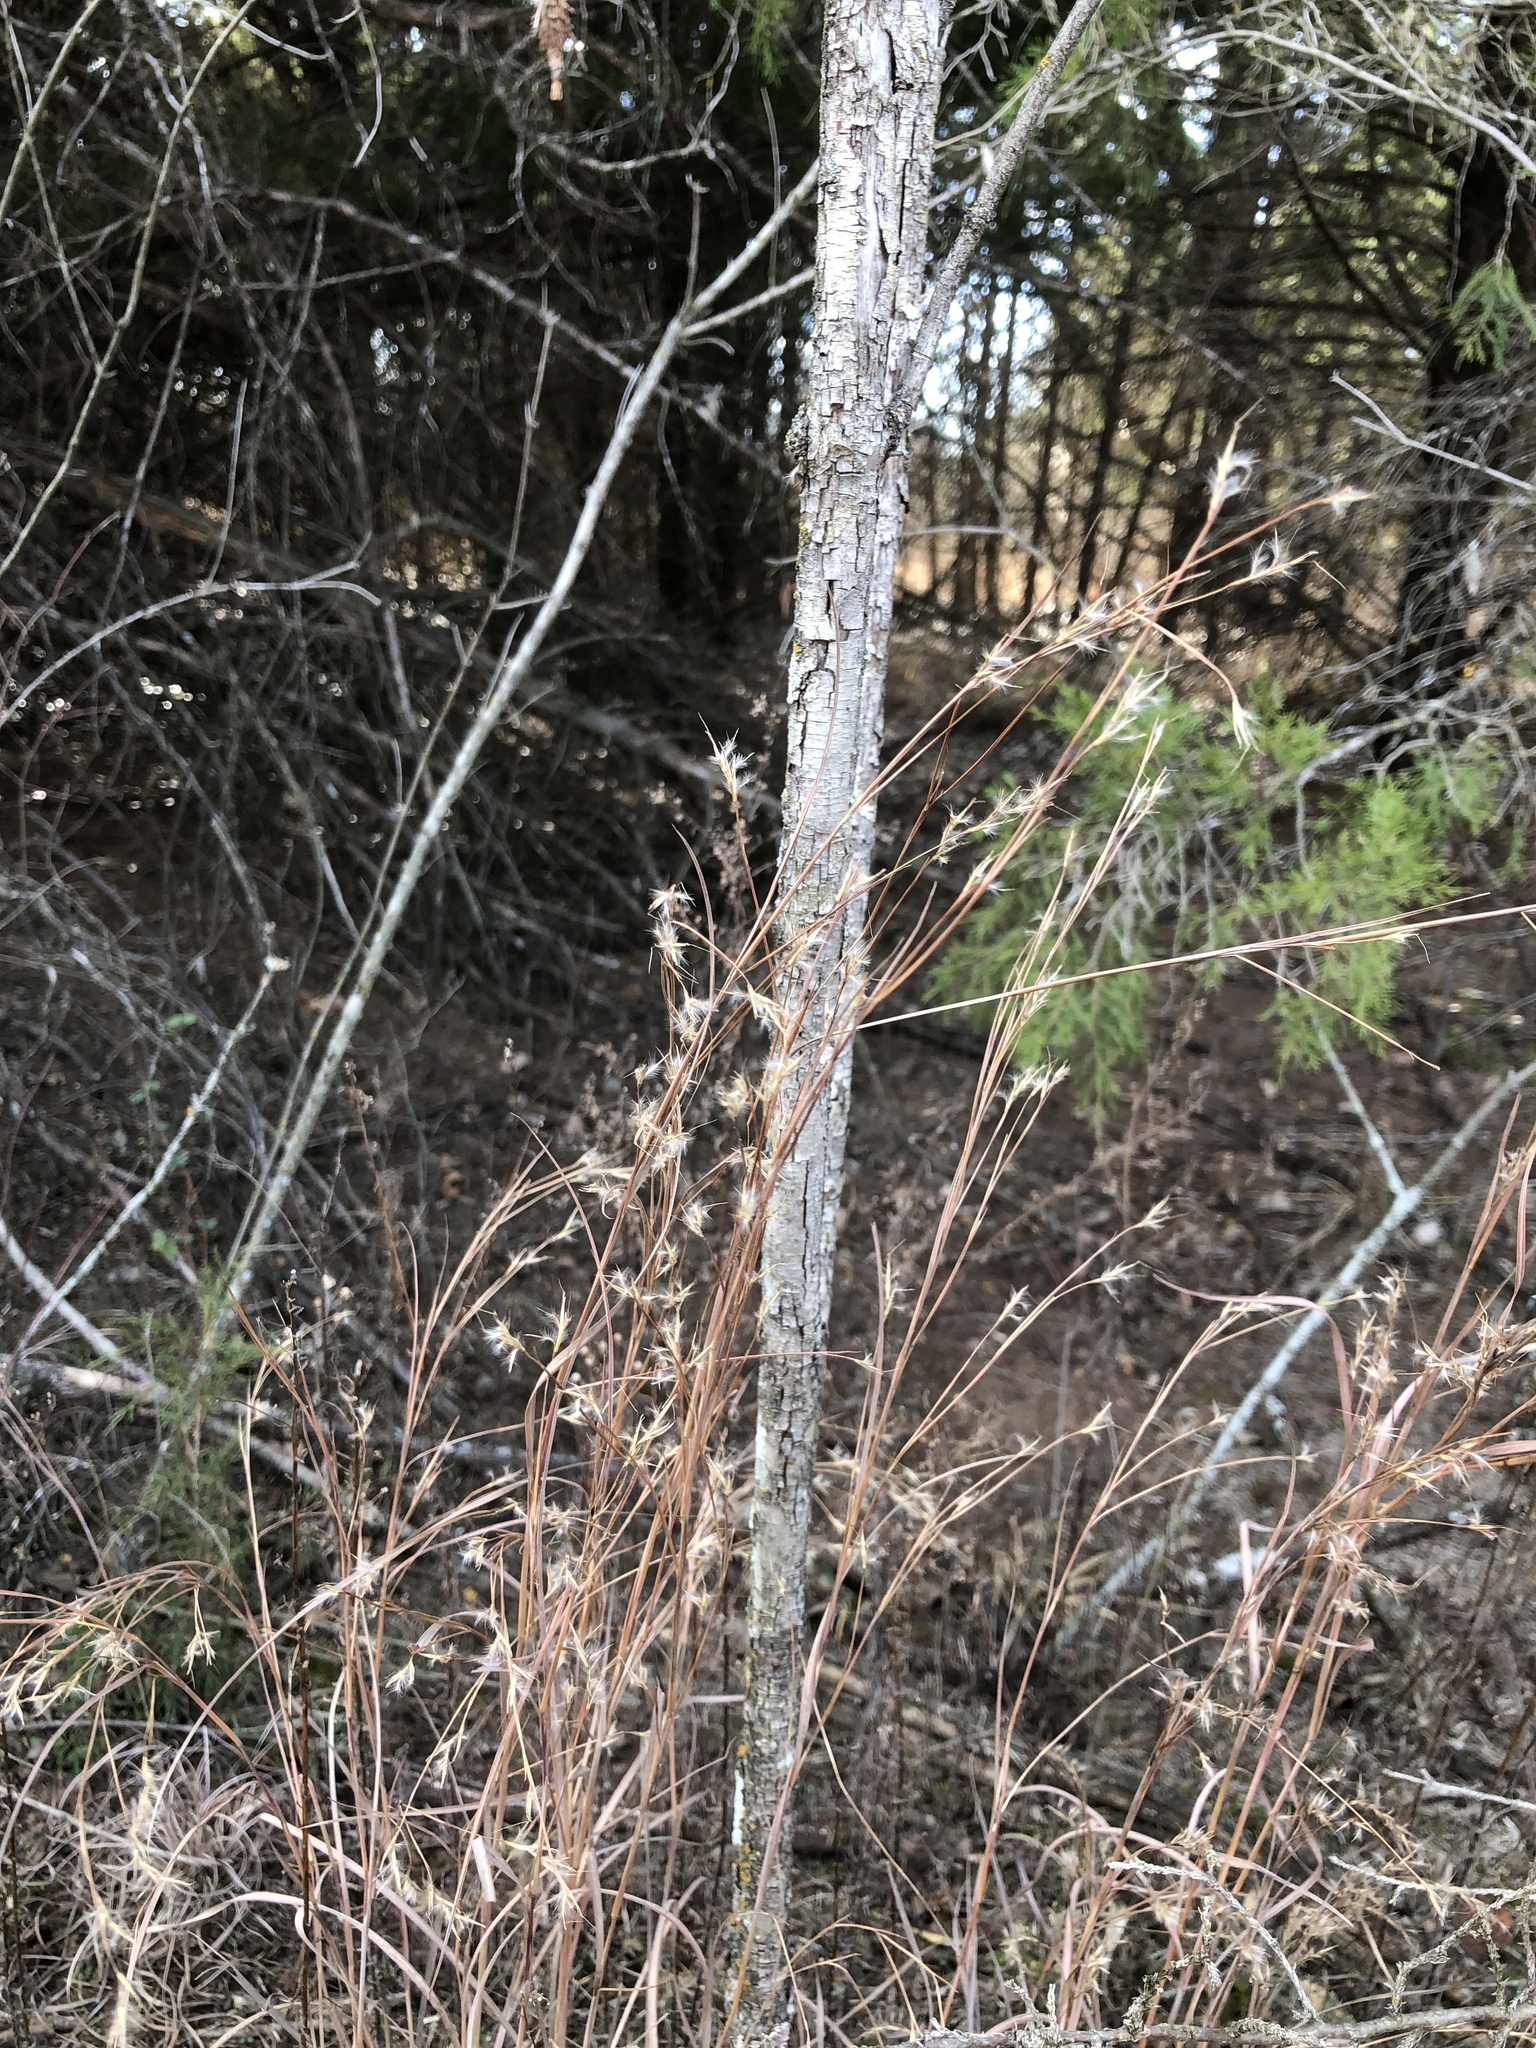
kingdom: Plantae
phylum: Tracheophyta
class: Liliopsida
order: Poales
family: Poaceae
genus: Schizachyrium
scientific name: Schizachyrium scoparium
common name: Little bluestem
